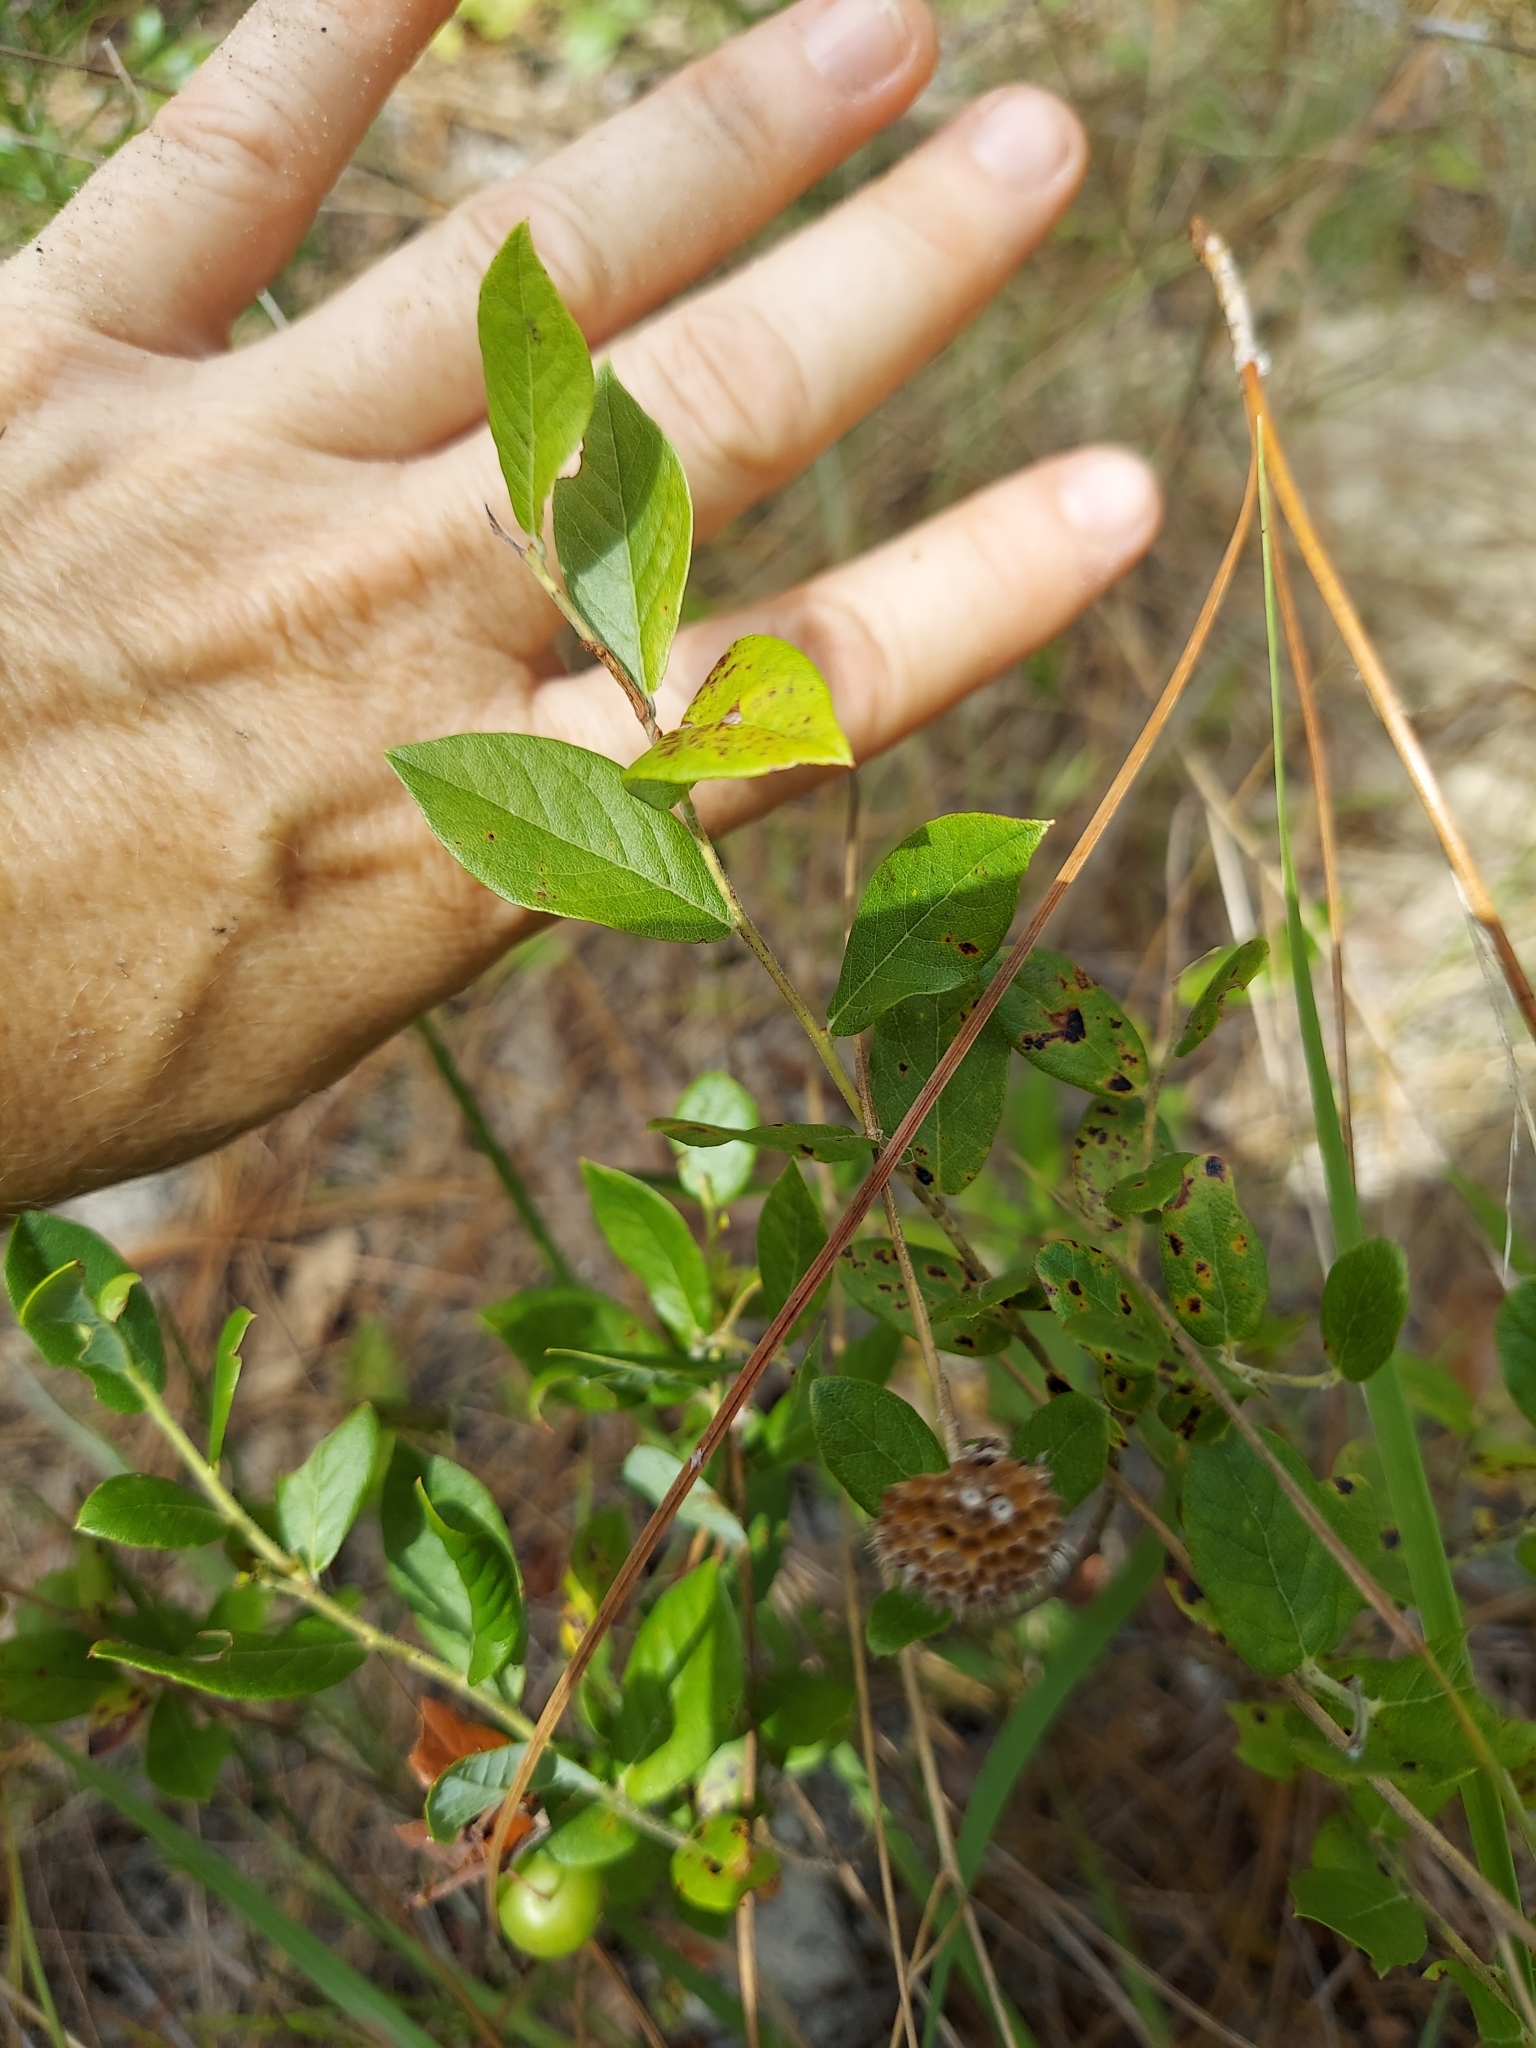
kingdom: Plantae
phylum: Tracheophyta
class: Magnoliopsida
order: Ericales
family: Ericaceae
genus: Vaccinium
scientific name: Vaccinium stamineum
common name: Deerberry
